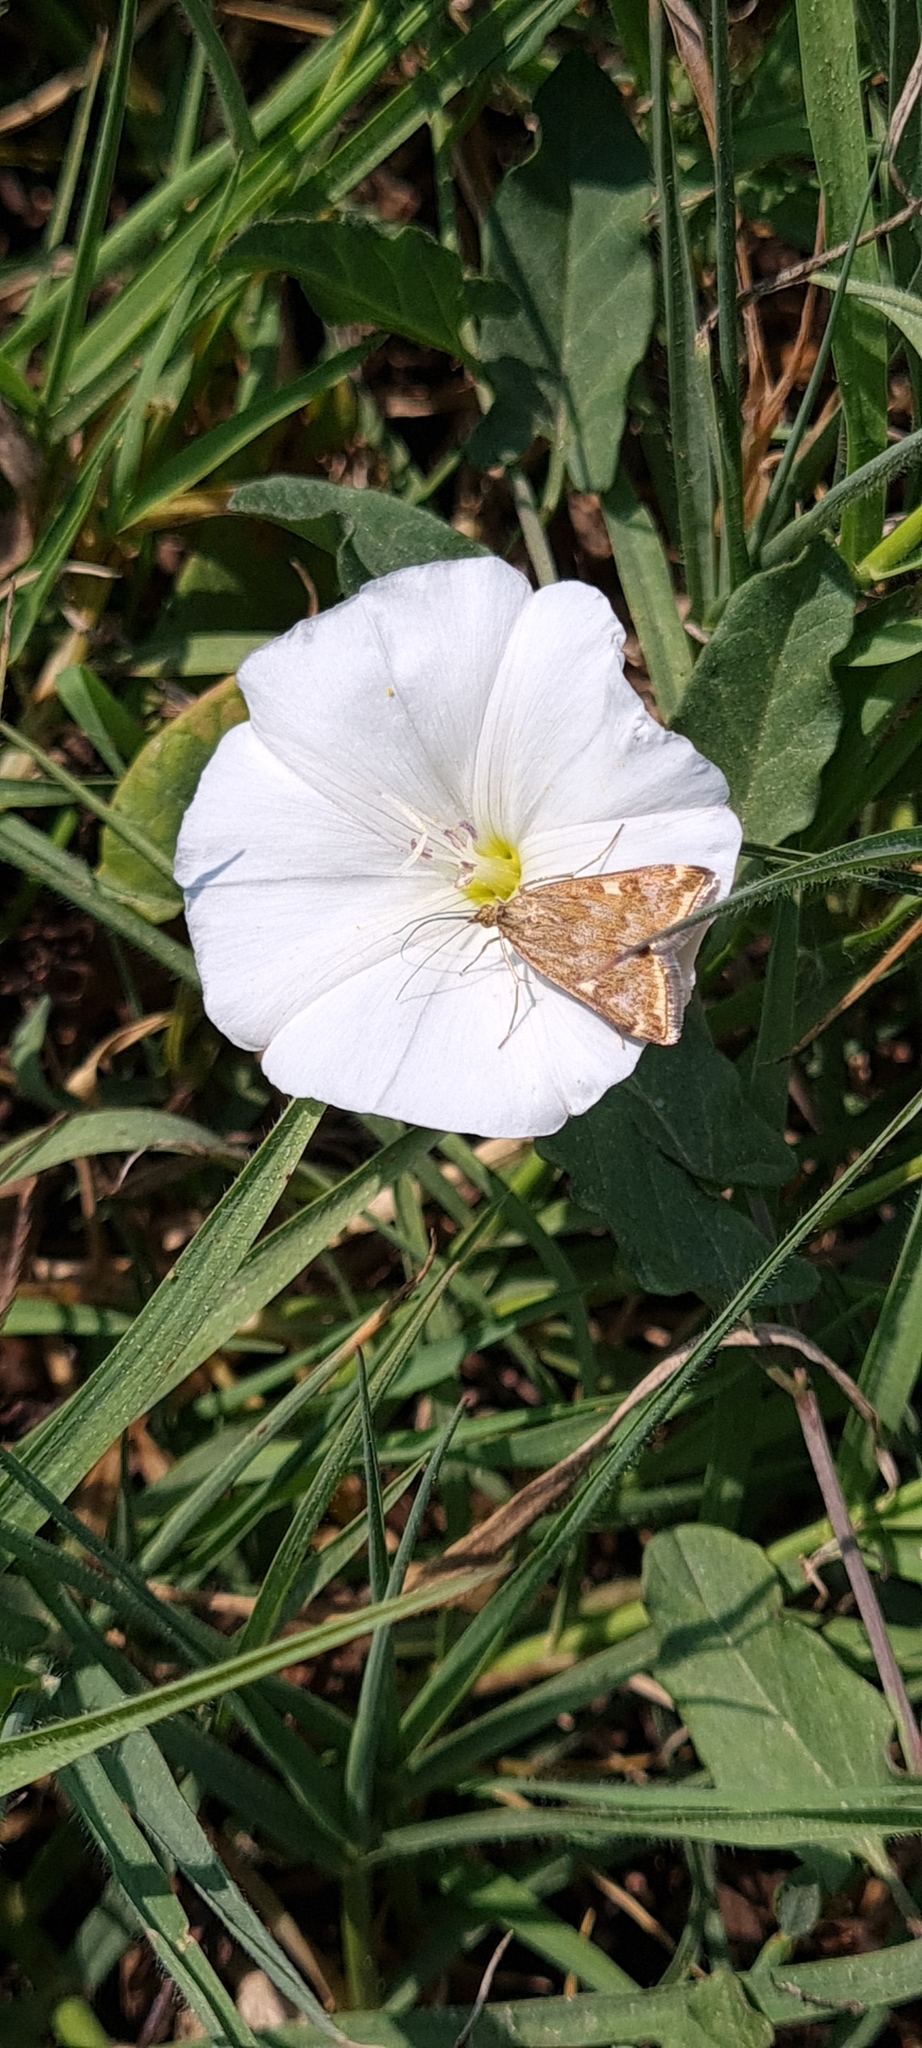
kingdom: Animalia
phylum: Arthropoda
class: Insecta
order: Lepidoptera
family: Crambidae
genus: Loxostege
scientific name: Loxostege sticticalis
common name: Crambid moth
